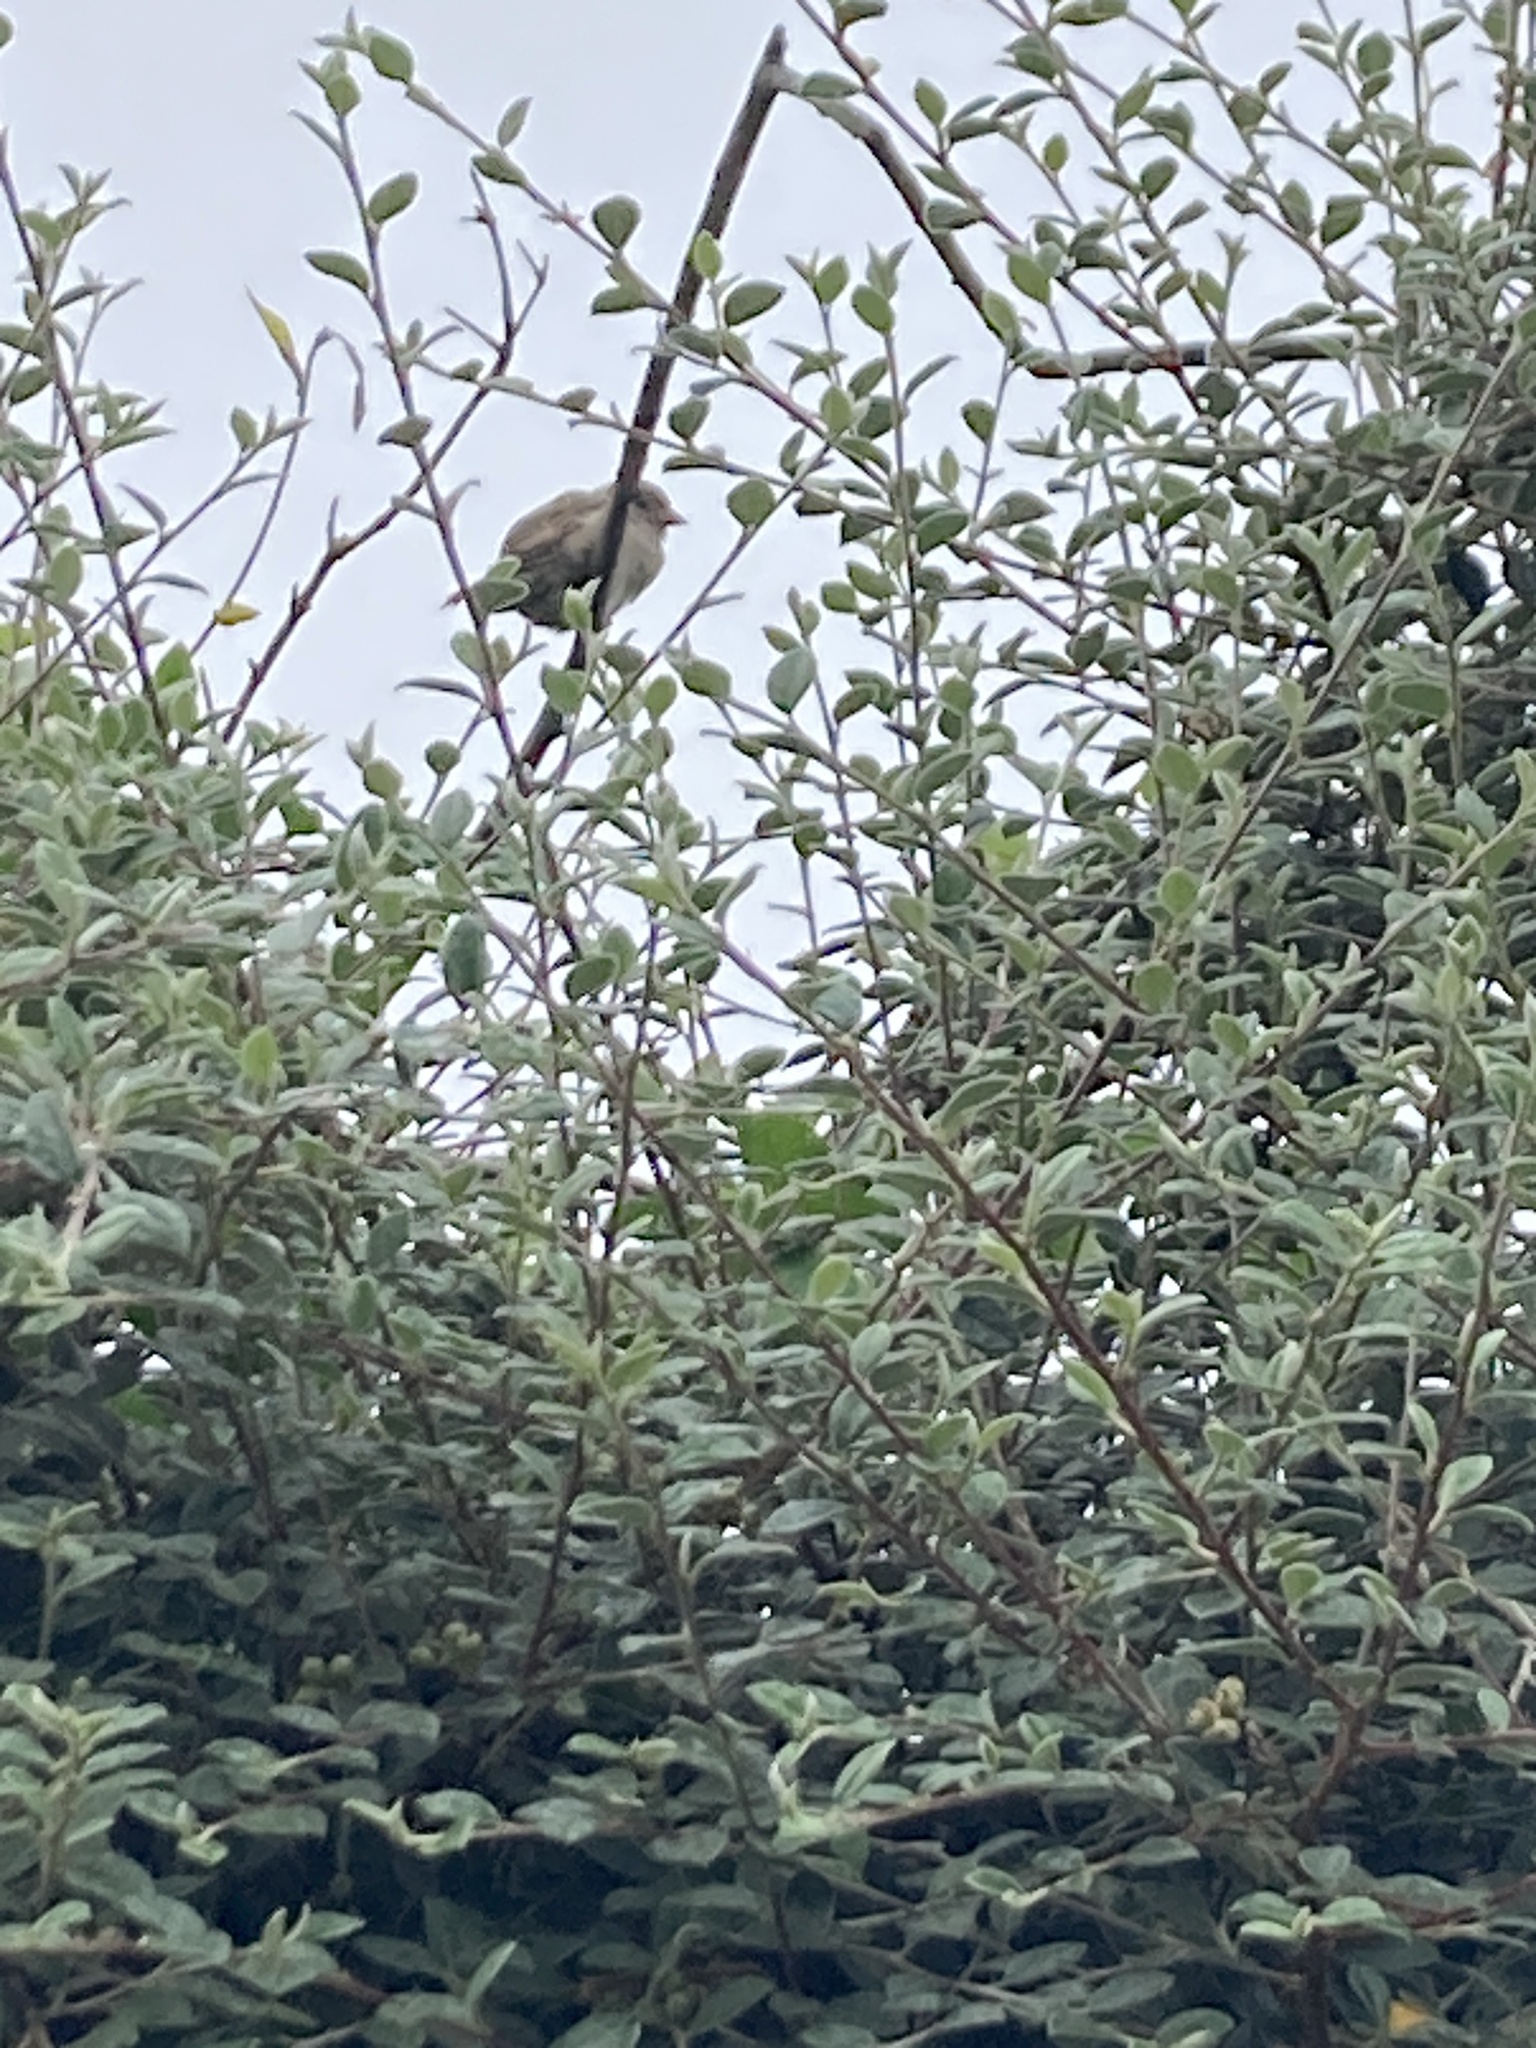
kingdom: Animalia
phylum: Chordata
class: Aves
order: Passeriformes
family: Passeridae
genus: Passer
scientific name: Passer domesticus
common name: House sparrow
